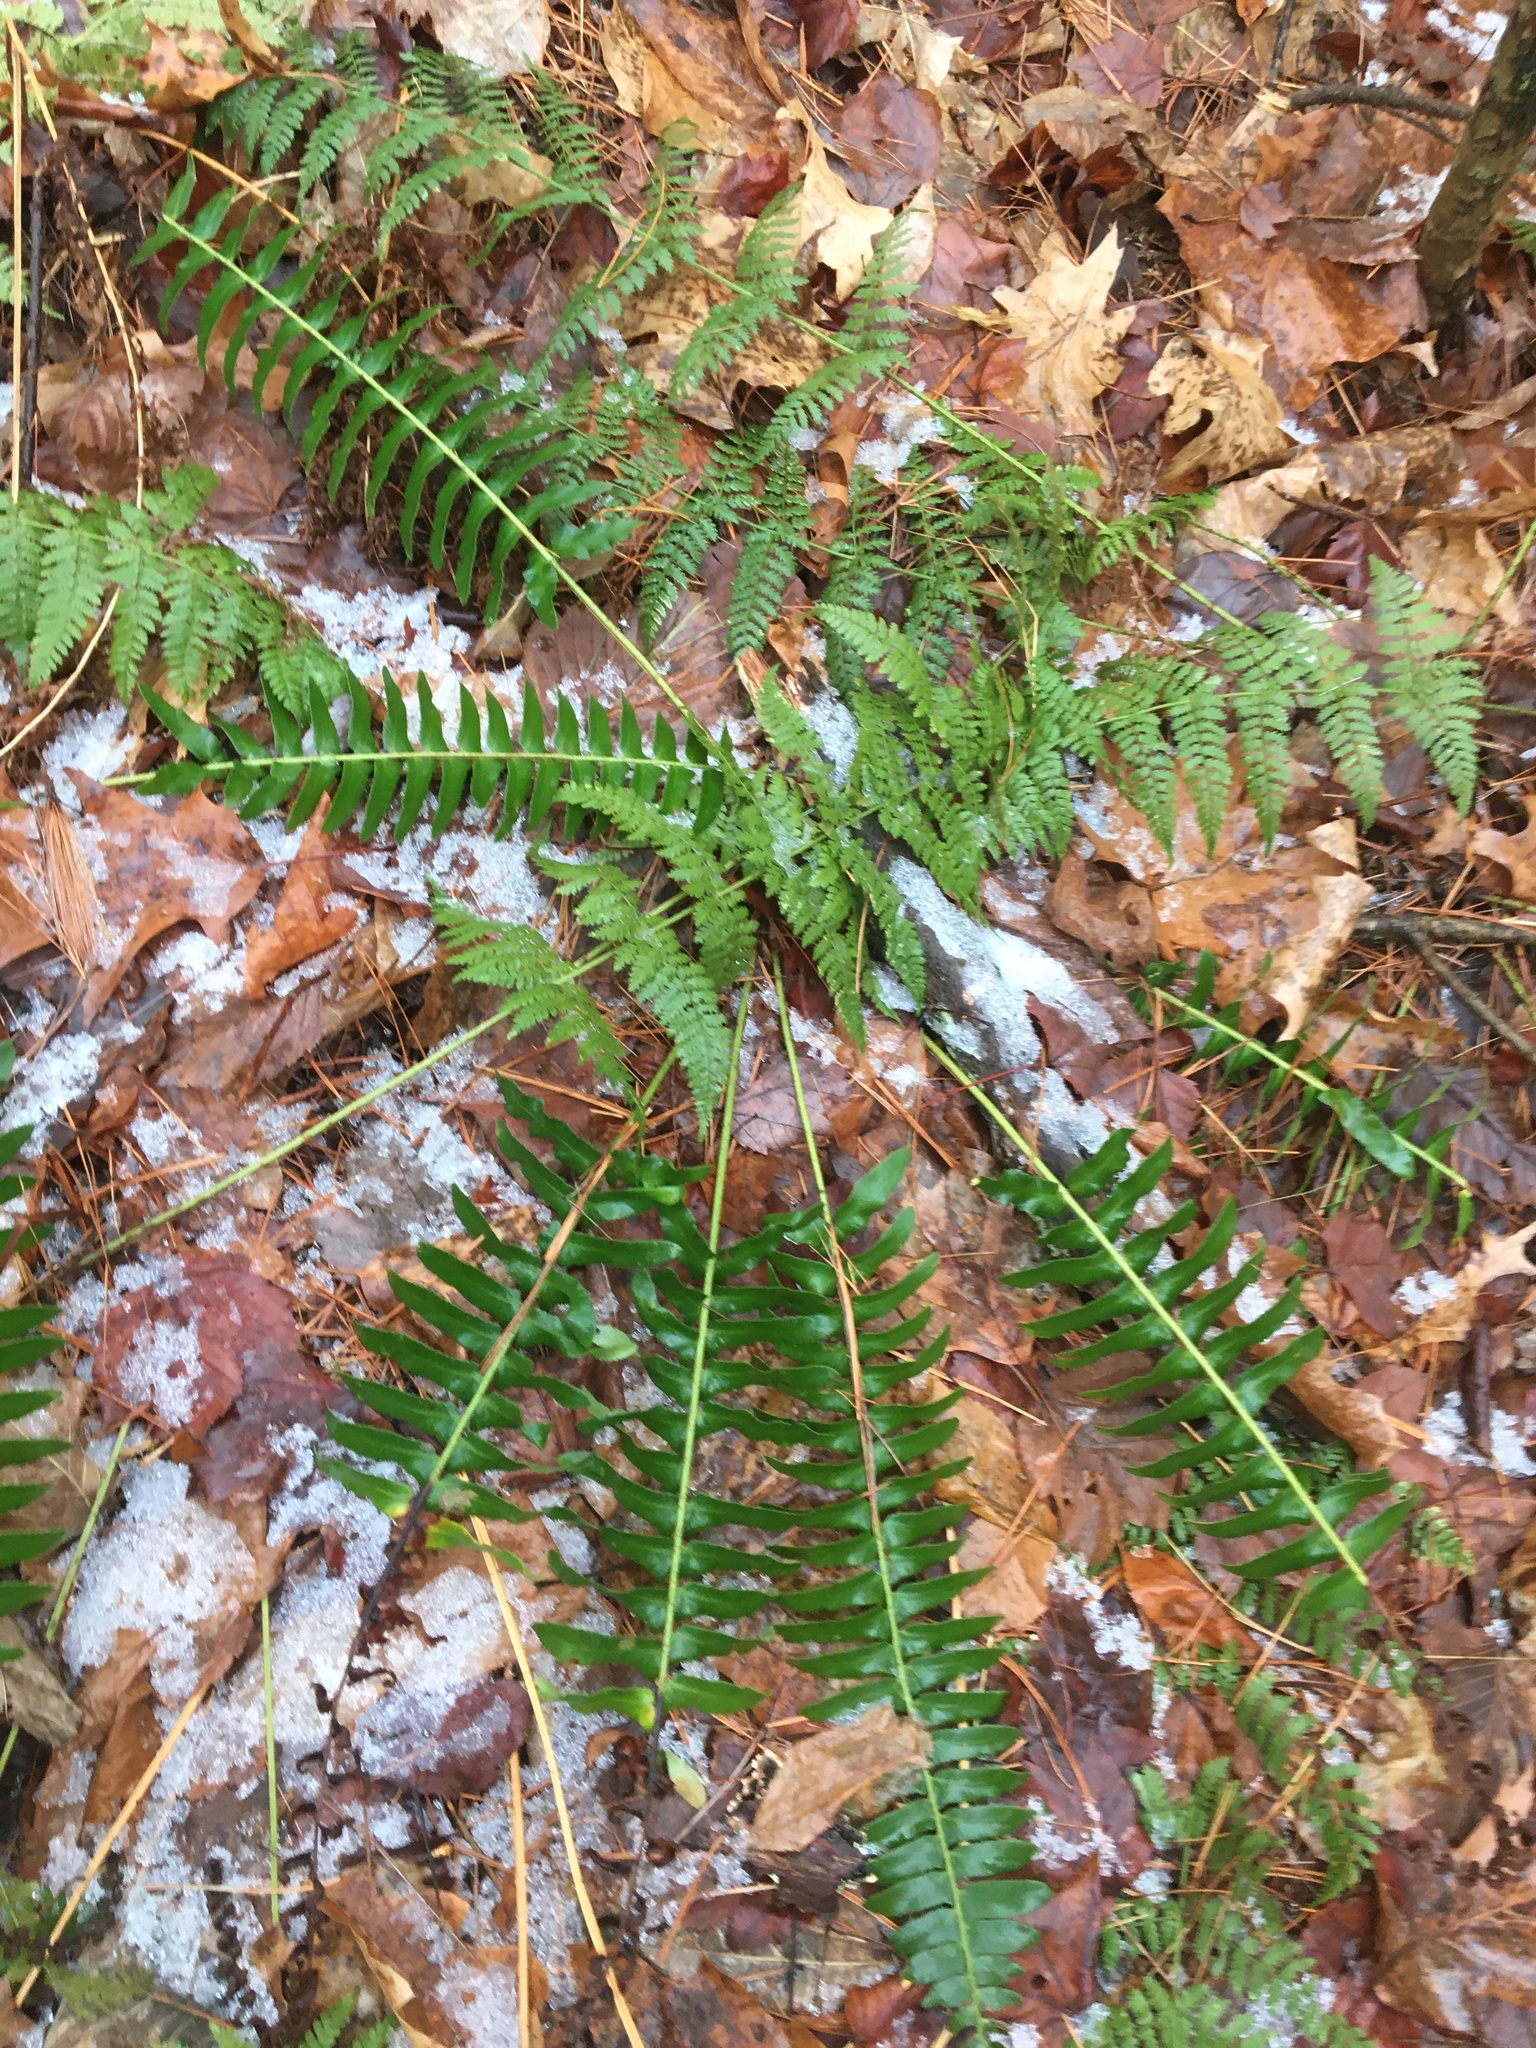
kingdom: Plantae
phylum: Tracheophyta
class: Polypodiopsida
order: Polypodiales
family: Dryopteridaceae
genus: Polystichum
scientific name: Polystichum acrostichoides
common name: Christmas fern
